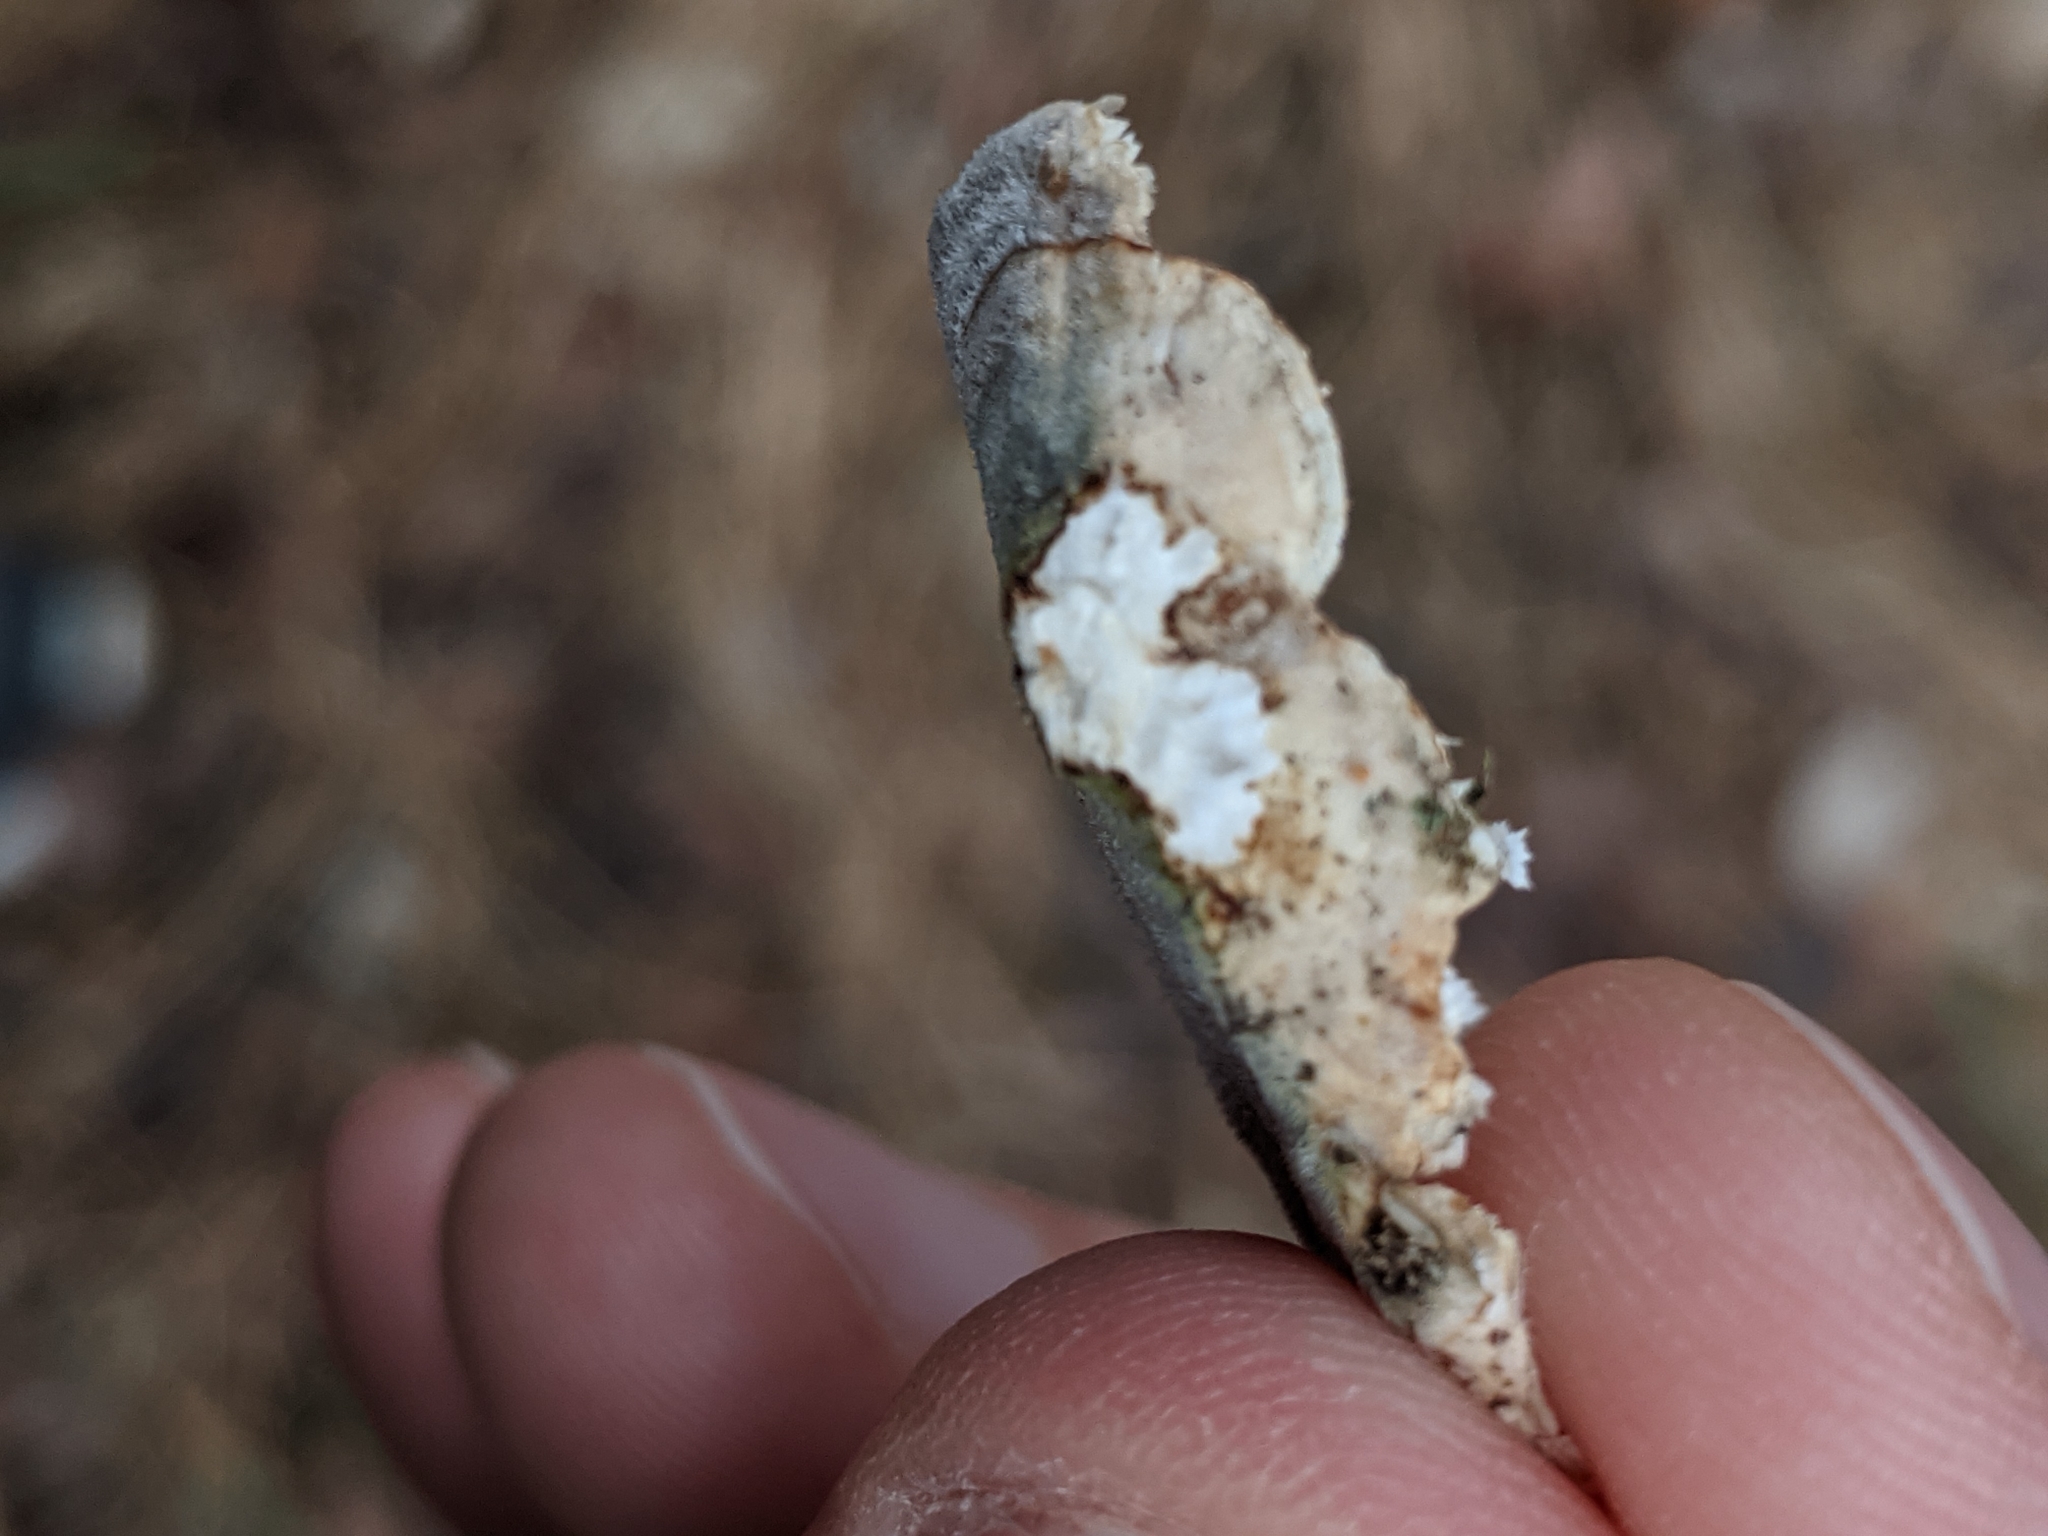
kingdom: Fungi
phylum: Basidiomycota
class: Agaricomycetes
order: Polyporales
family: Polyporaceae
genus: Trametes
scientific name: Trametes versicolor
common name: Turkeytail
